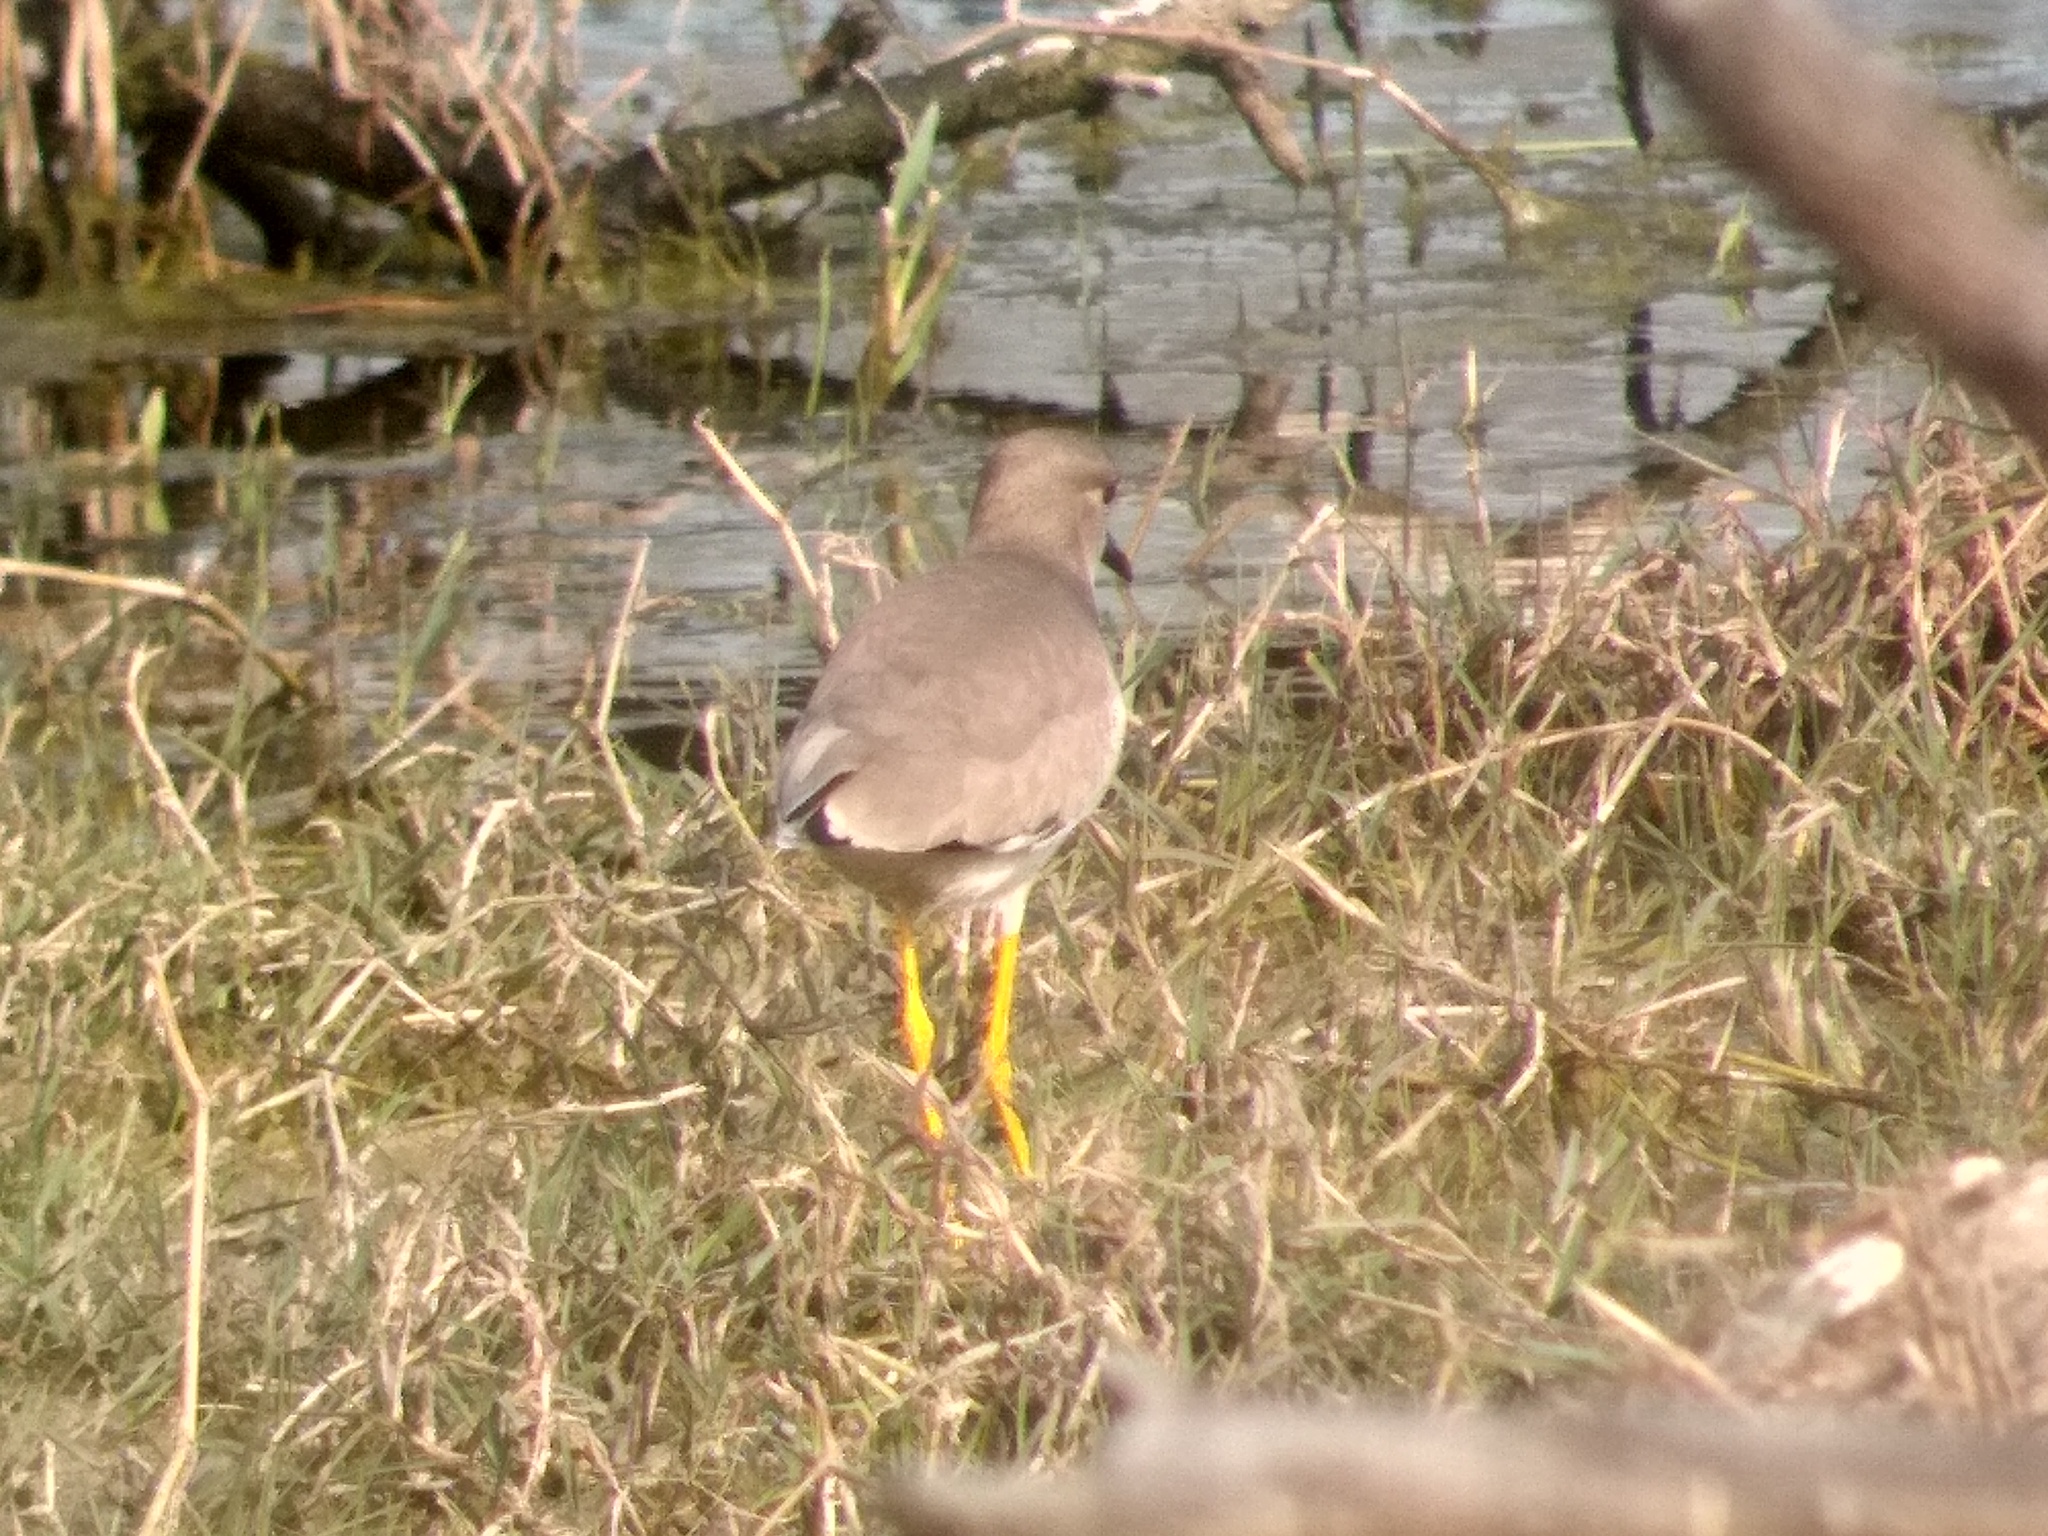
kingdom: Animalia
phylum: Chordata
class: Aves
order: Charadriiformes
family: Charadriidae
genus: Vanellus
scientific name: Vanellus leucurus
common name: White-tailed lapwing
